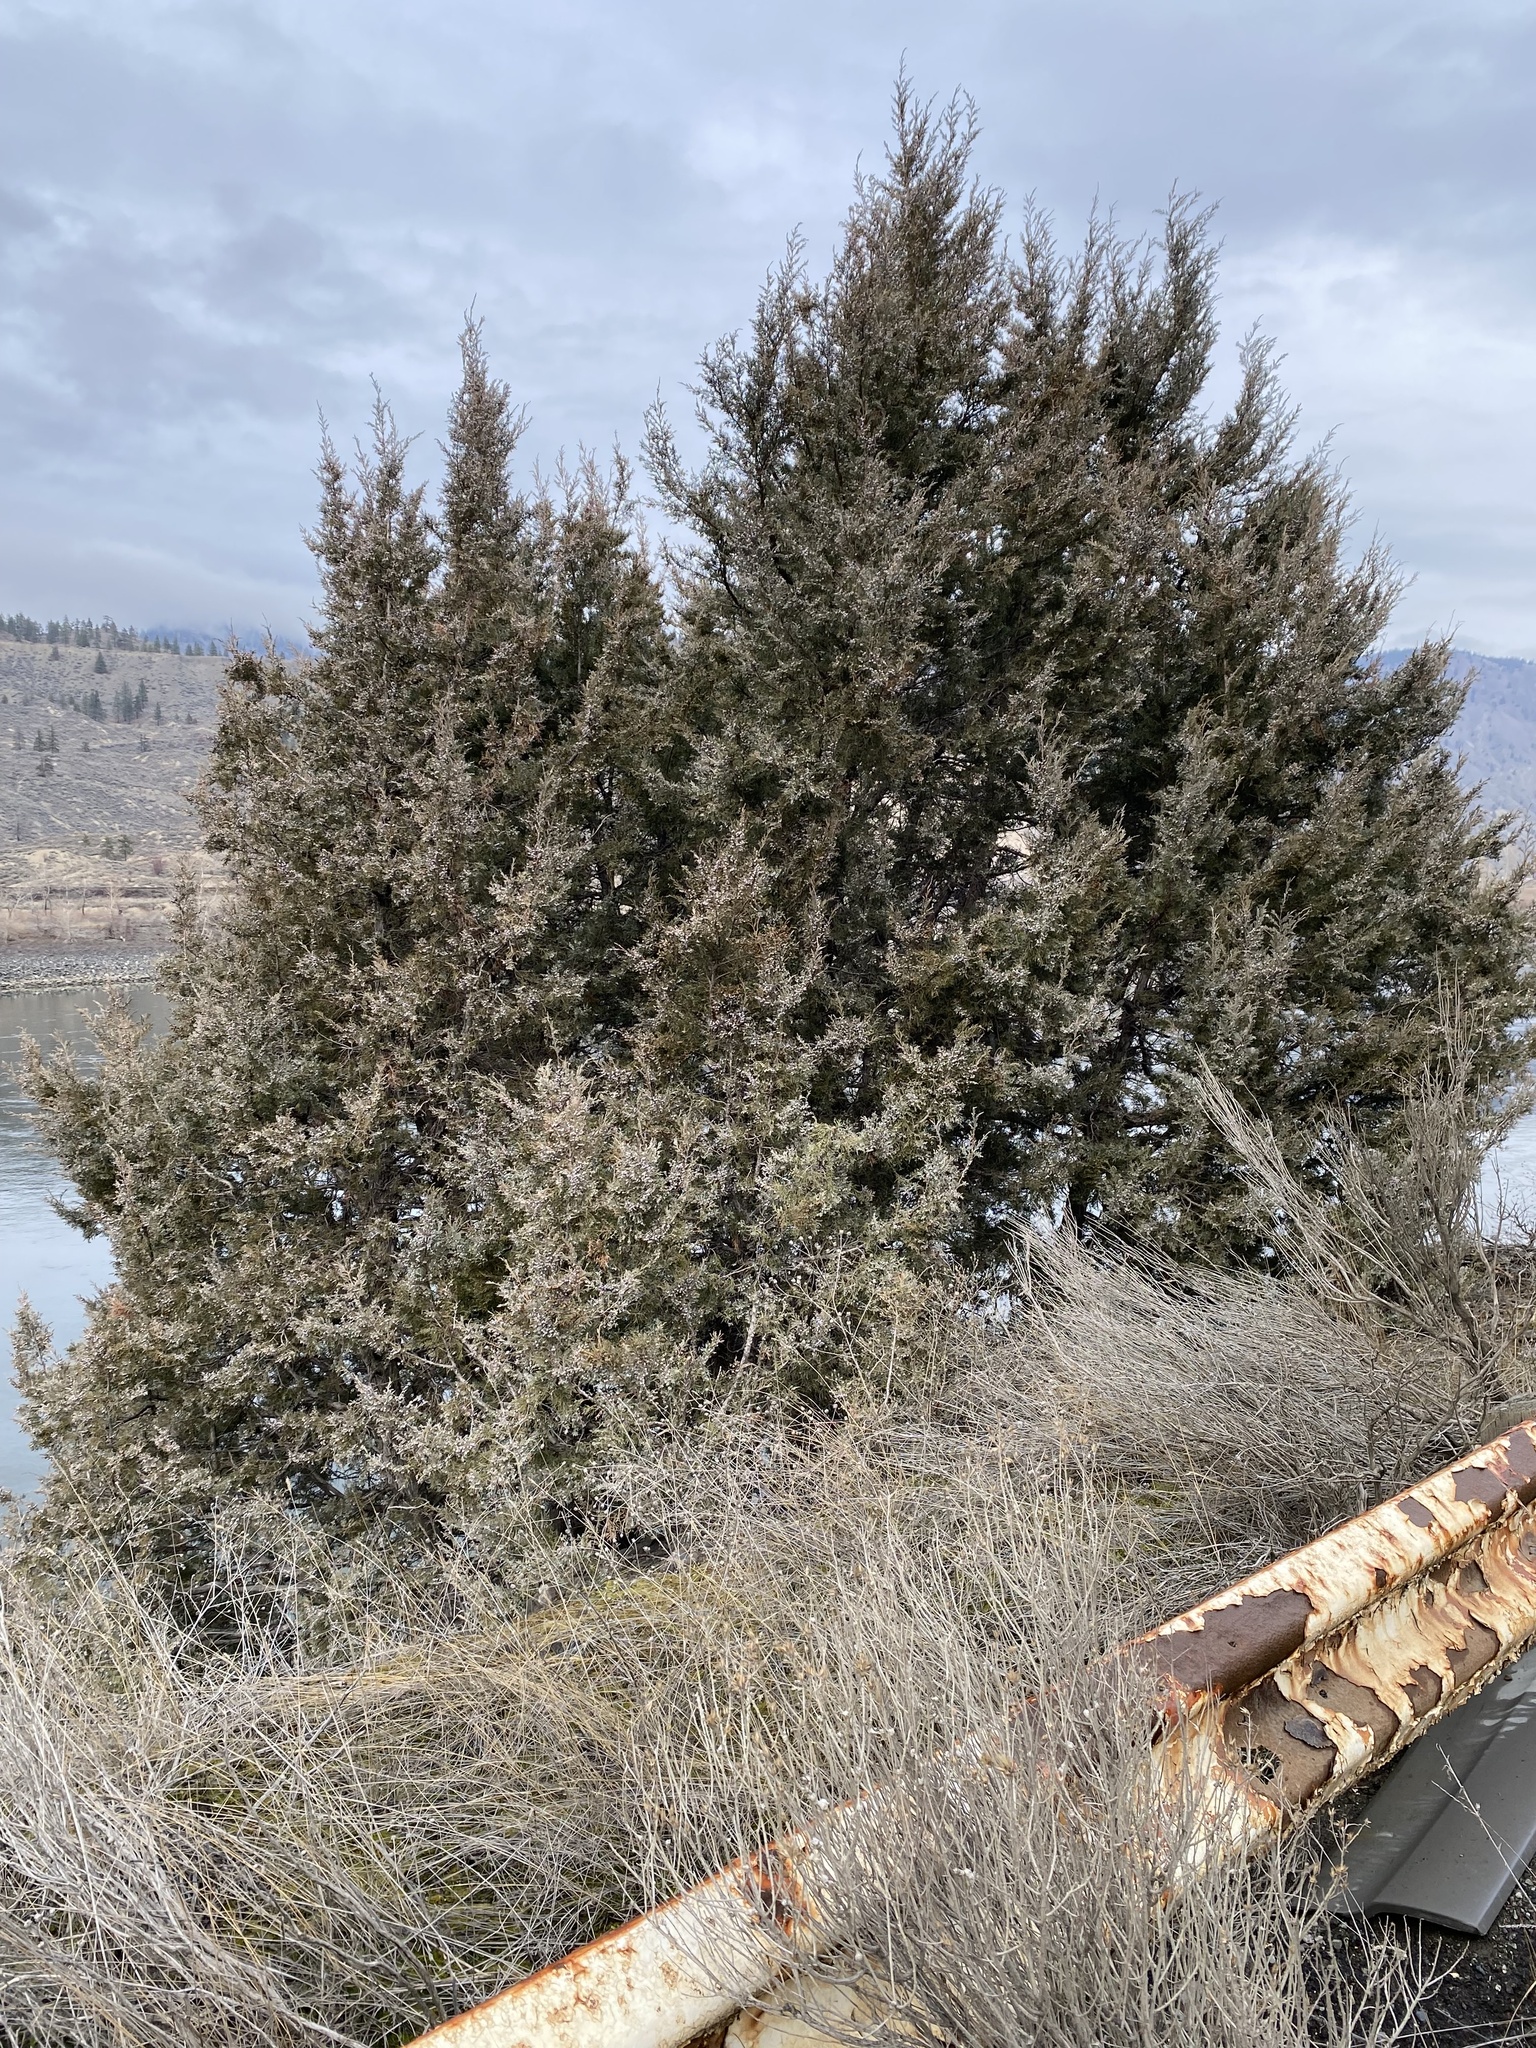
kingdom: Plantae
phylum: Tracheophyta
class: Pinopsida
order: Pinales
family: Cupressaceae
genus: Juniperus
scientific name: Juniperus scopulorum
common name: Rocky mountain juniper
